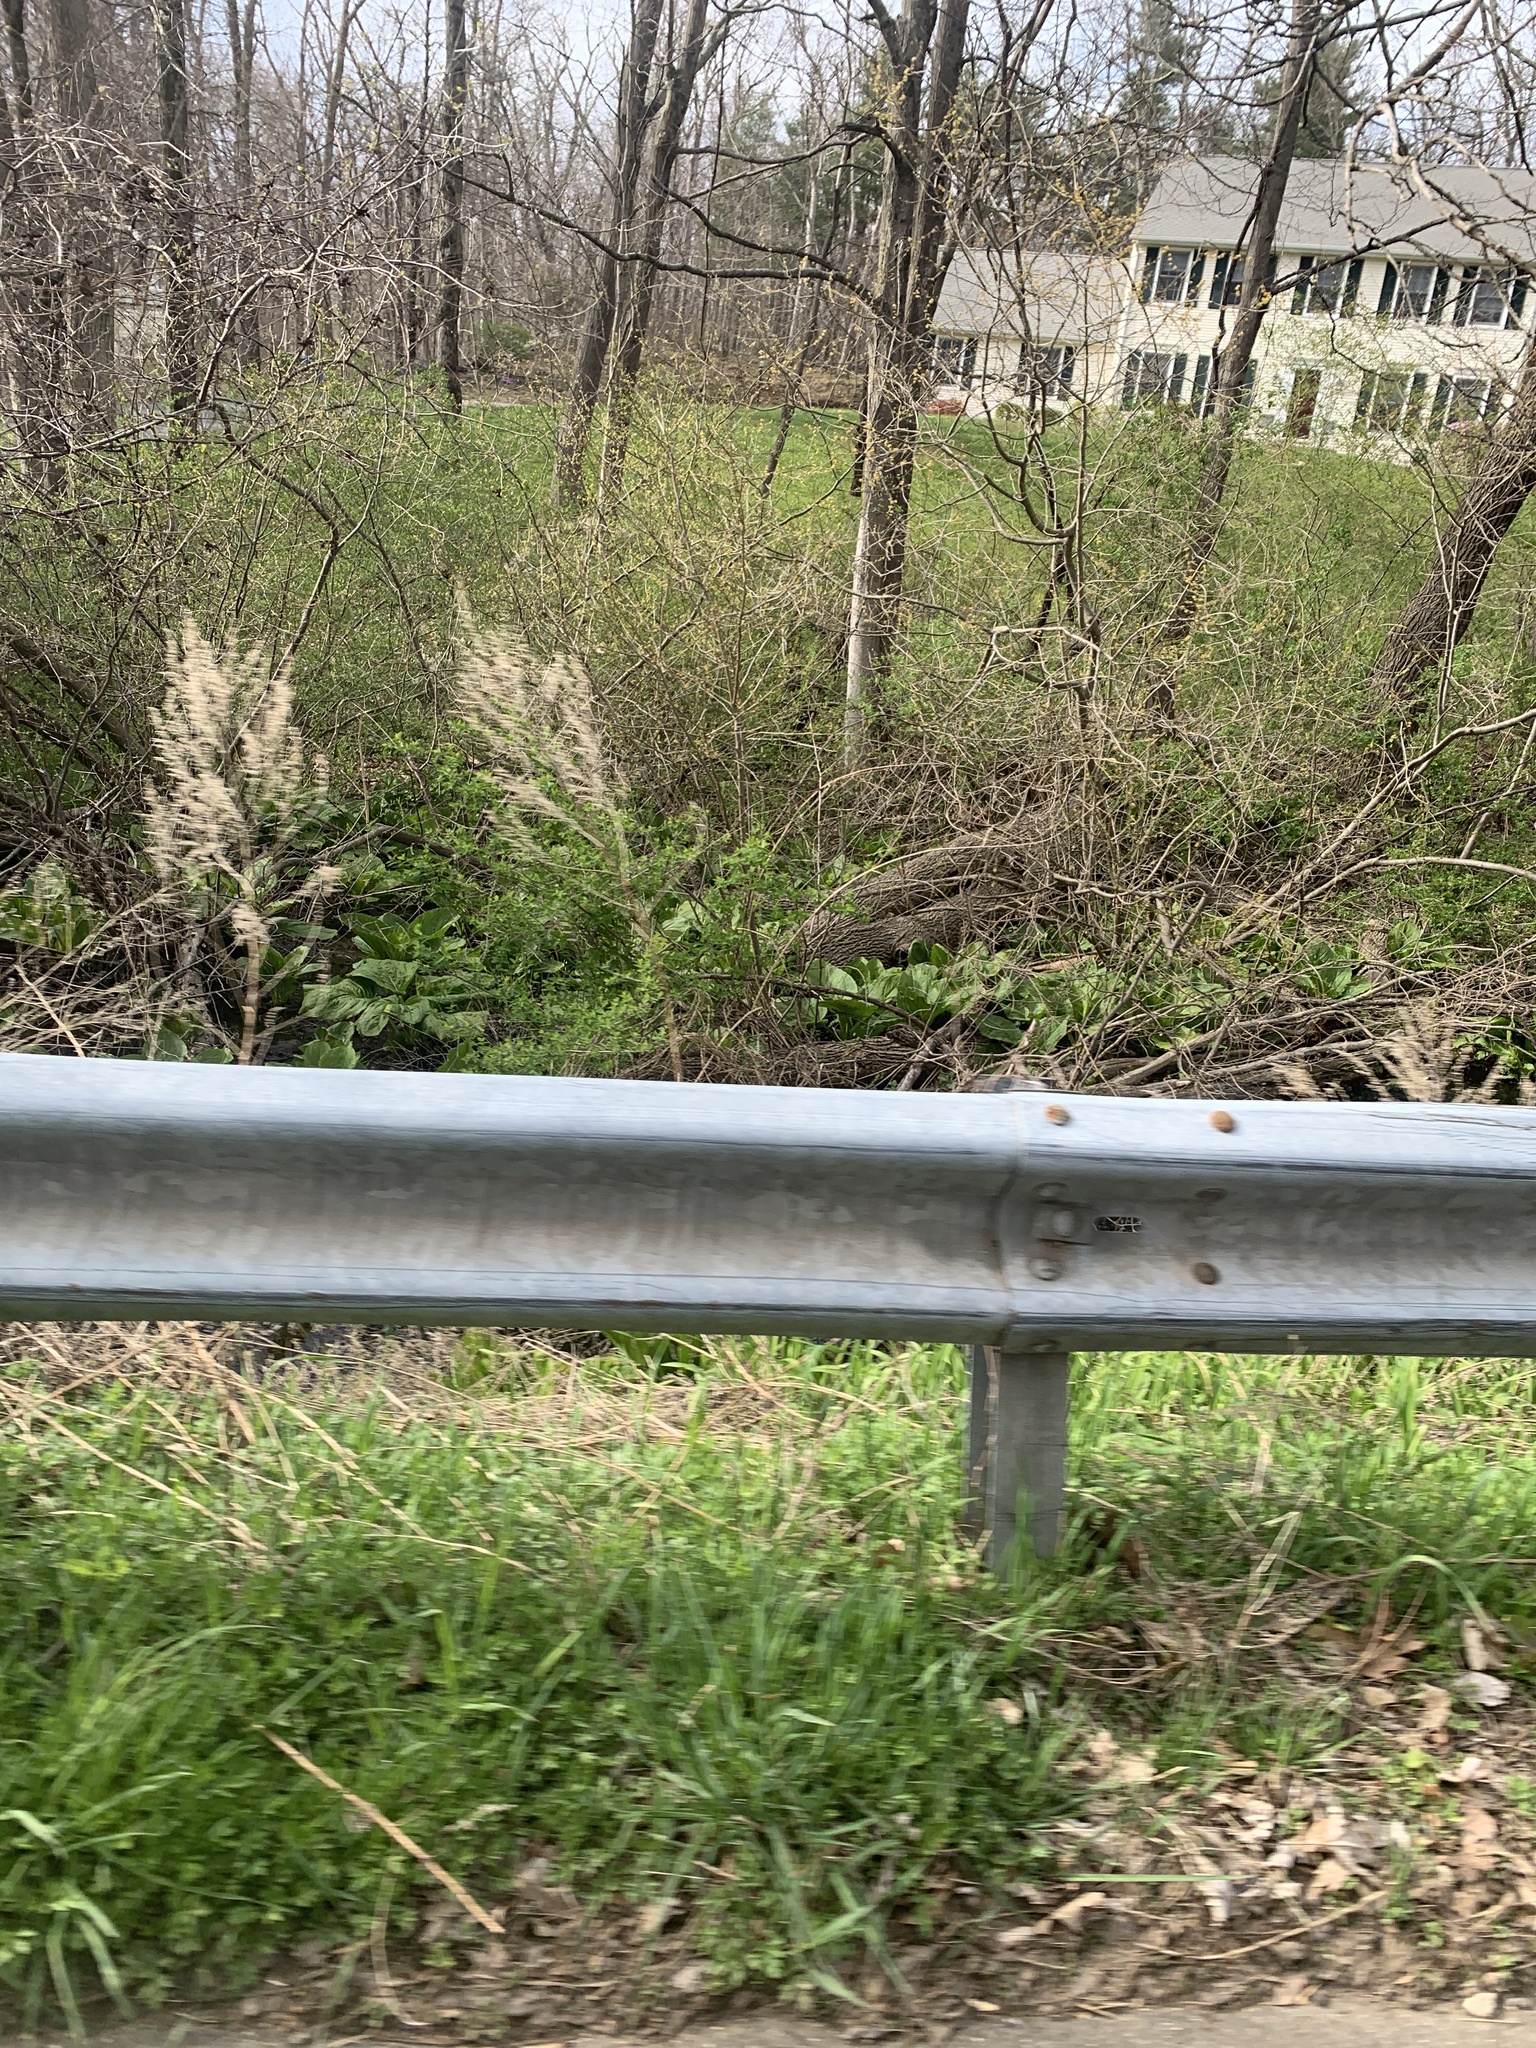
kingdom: Plantae
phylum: Tracheophyta
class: Liliopsida
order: Alismatales
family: Araceae
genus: Symplocarpus
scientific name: Symplocarpus foetidus
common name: Eastern skunk cabbage
